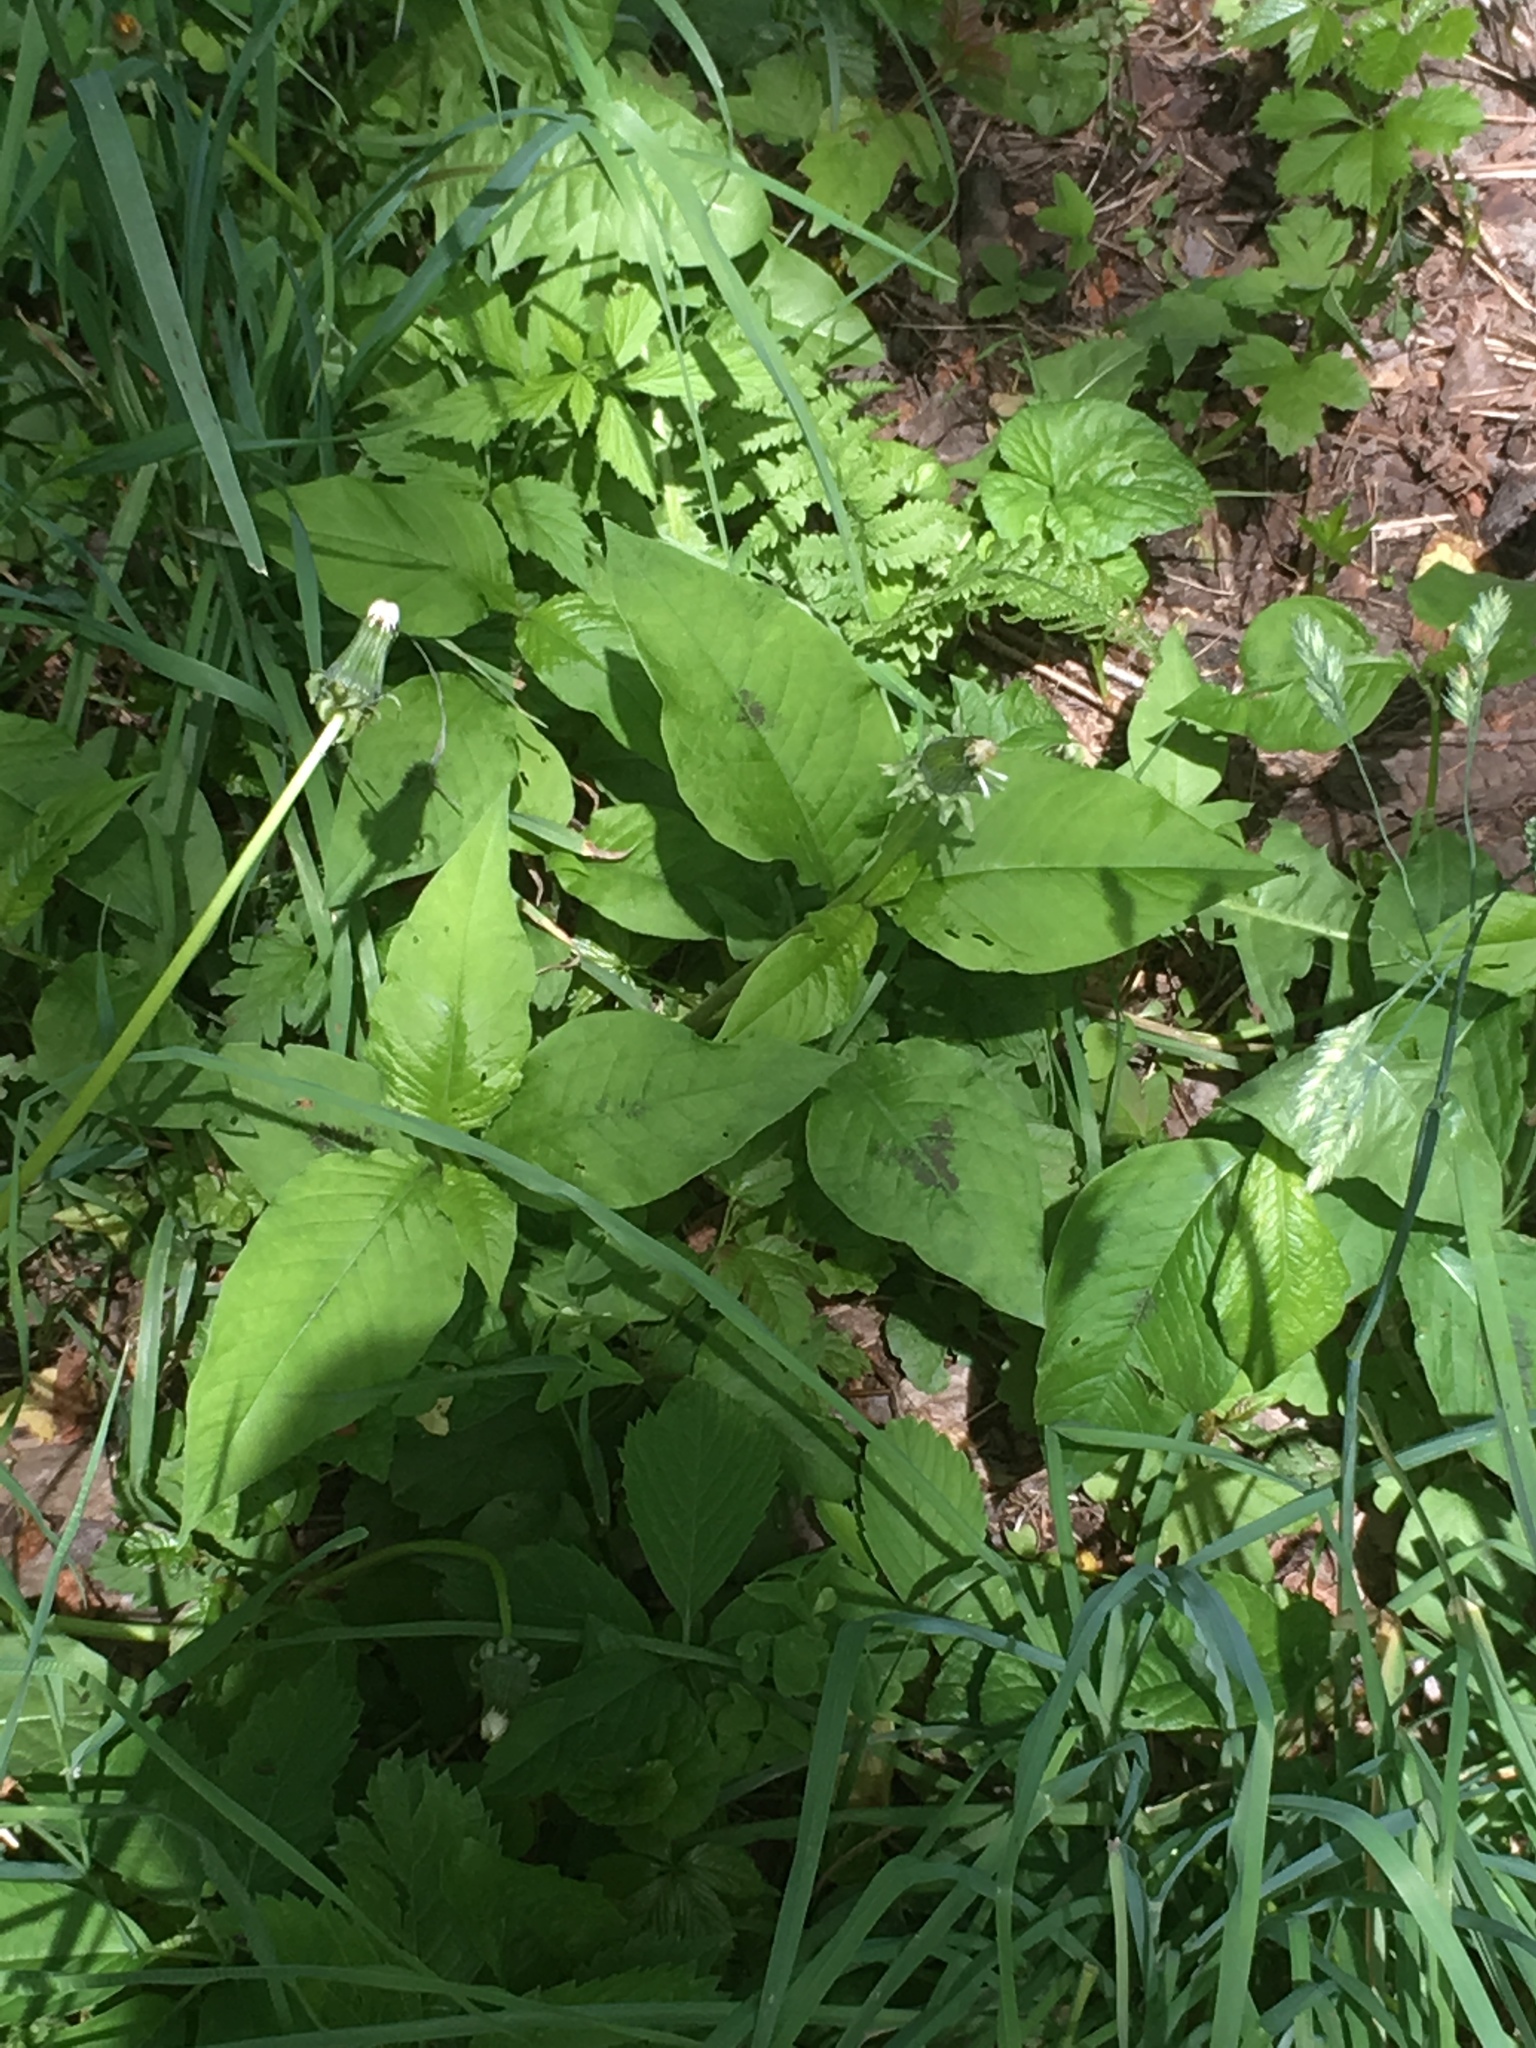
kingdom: Plantae
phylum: Tracheophyta
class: Magnoliopsida
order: Caryophyllales
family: Polygonaceae
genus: Persicaria
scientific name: Persicaria virginiana
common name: Jumpseed
